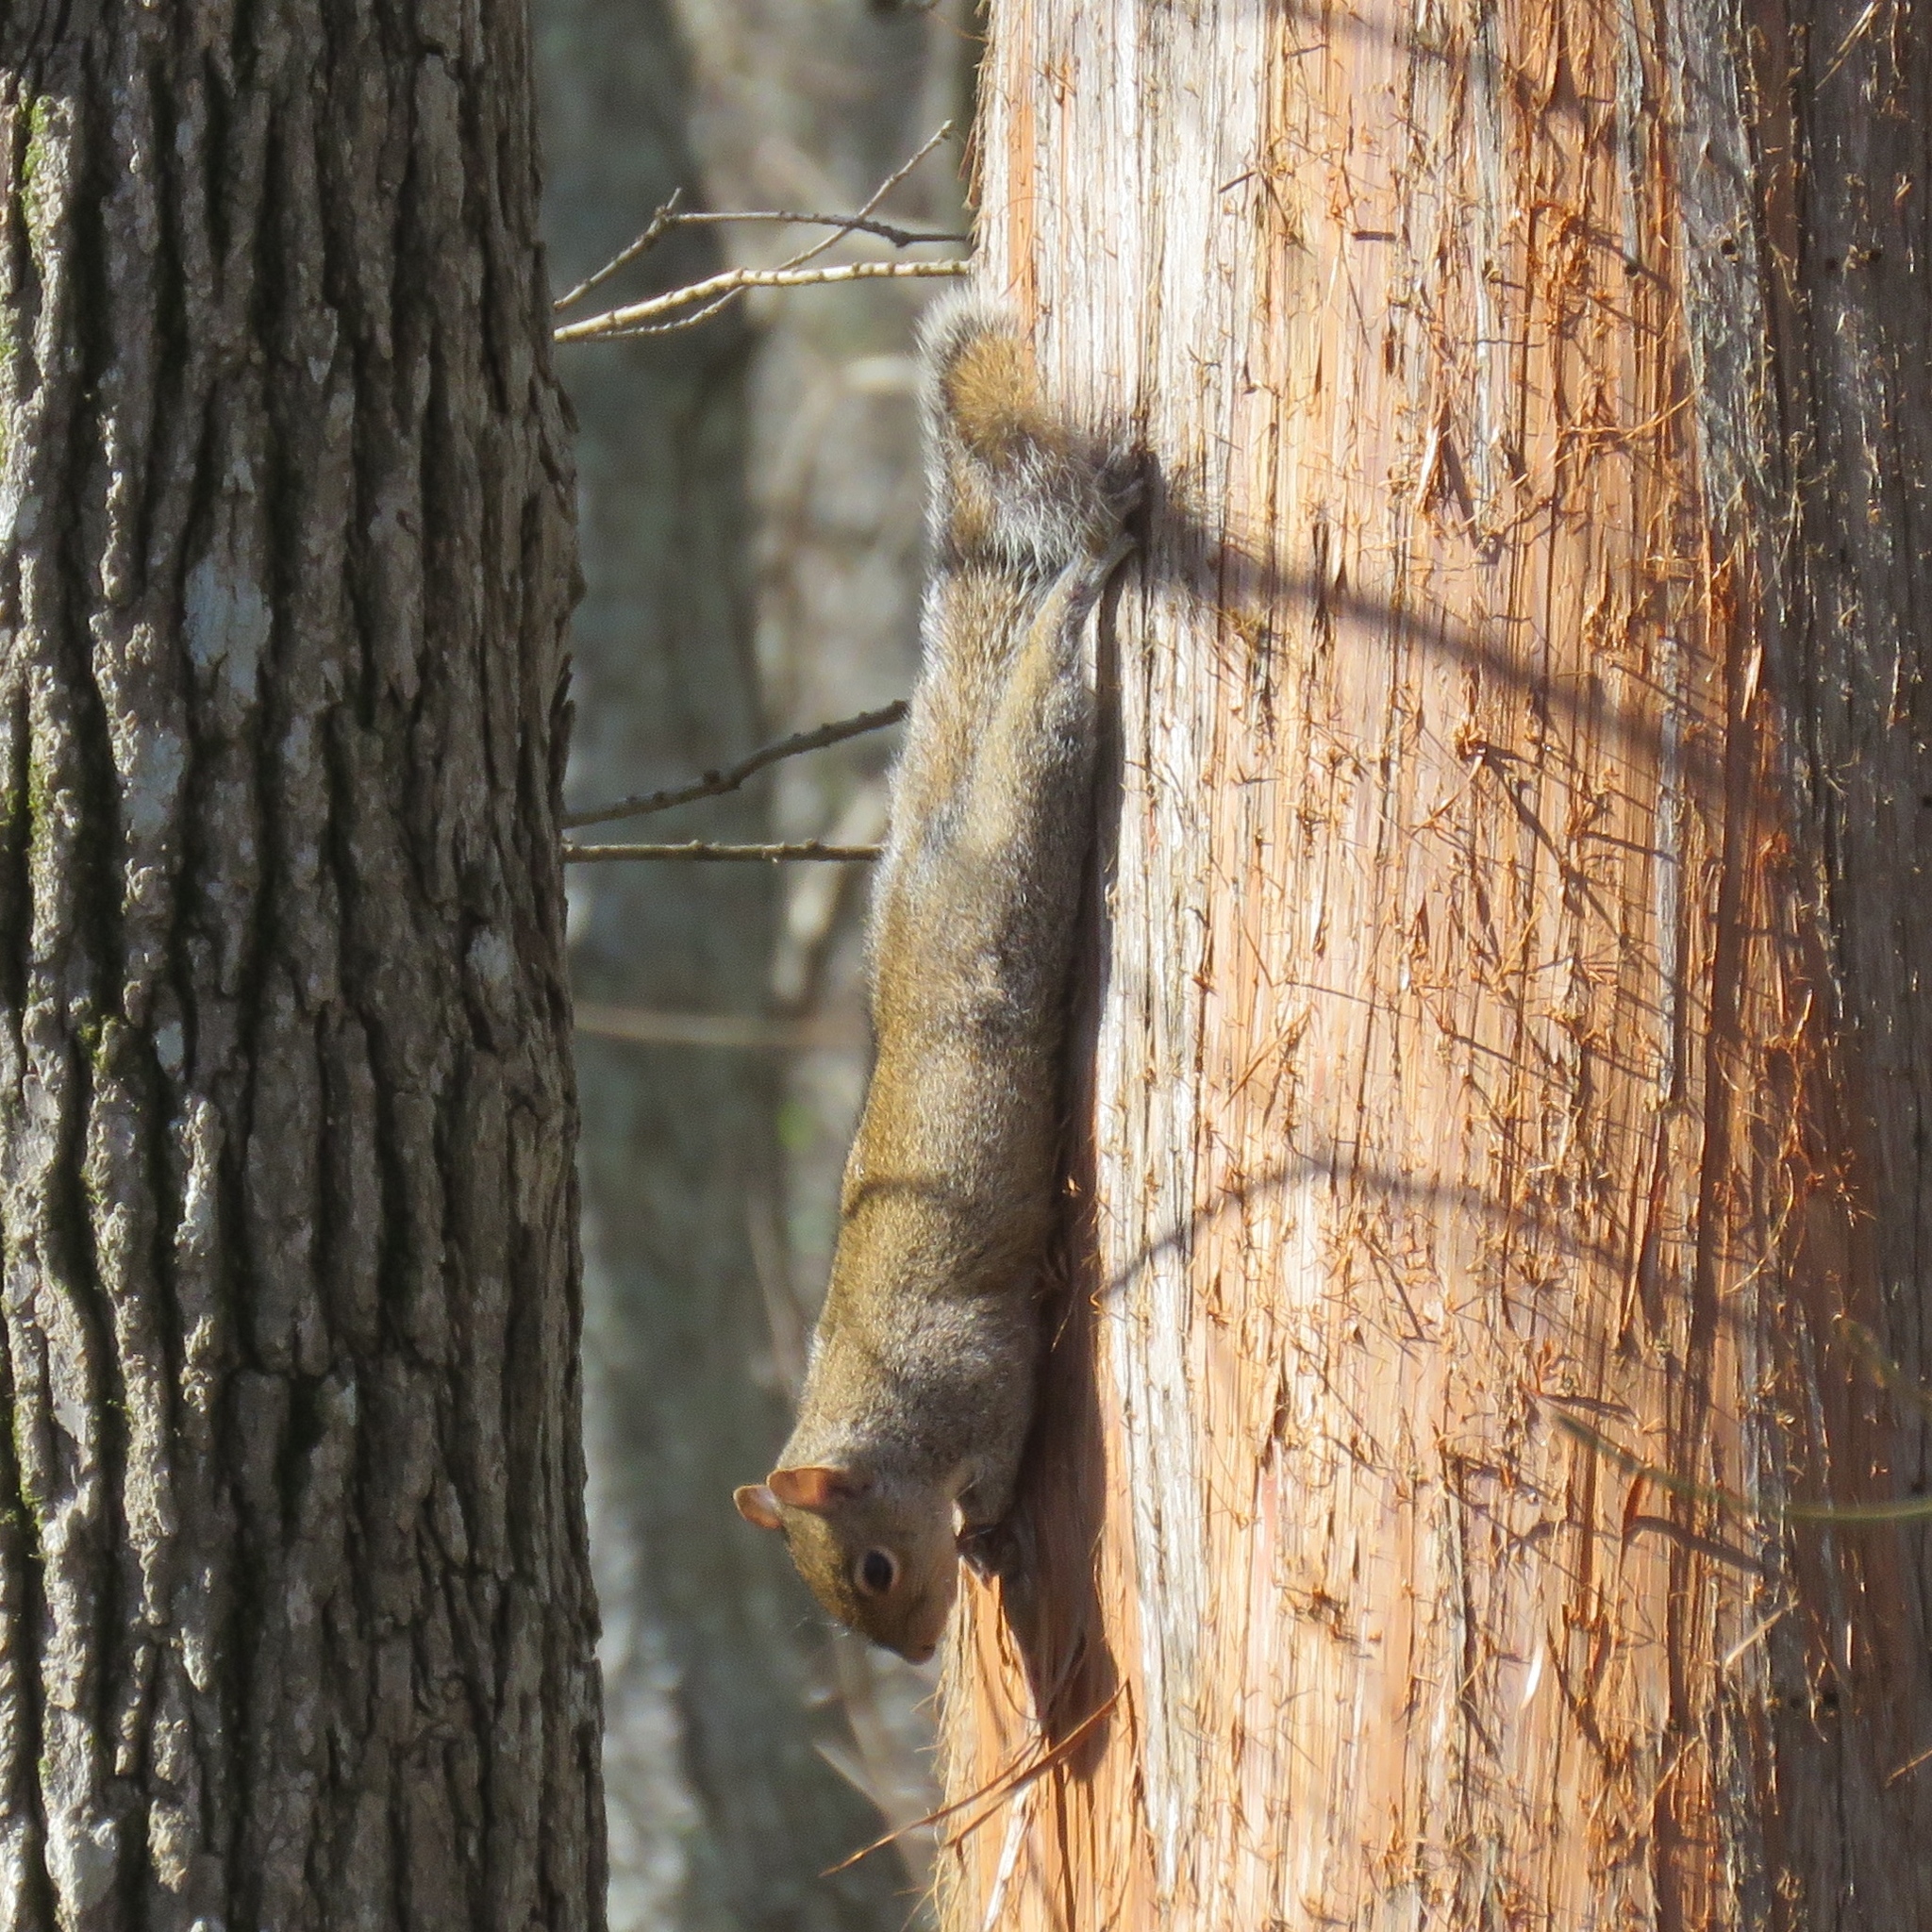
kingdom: Animalia
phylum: Chordata
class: Mammalia
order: Rodentia
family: Sciuridae
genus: Sciurus
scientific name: Sciurus carolinensis
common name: Eastern gray squirrel
